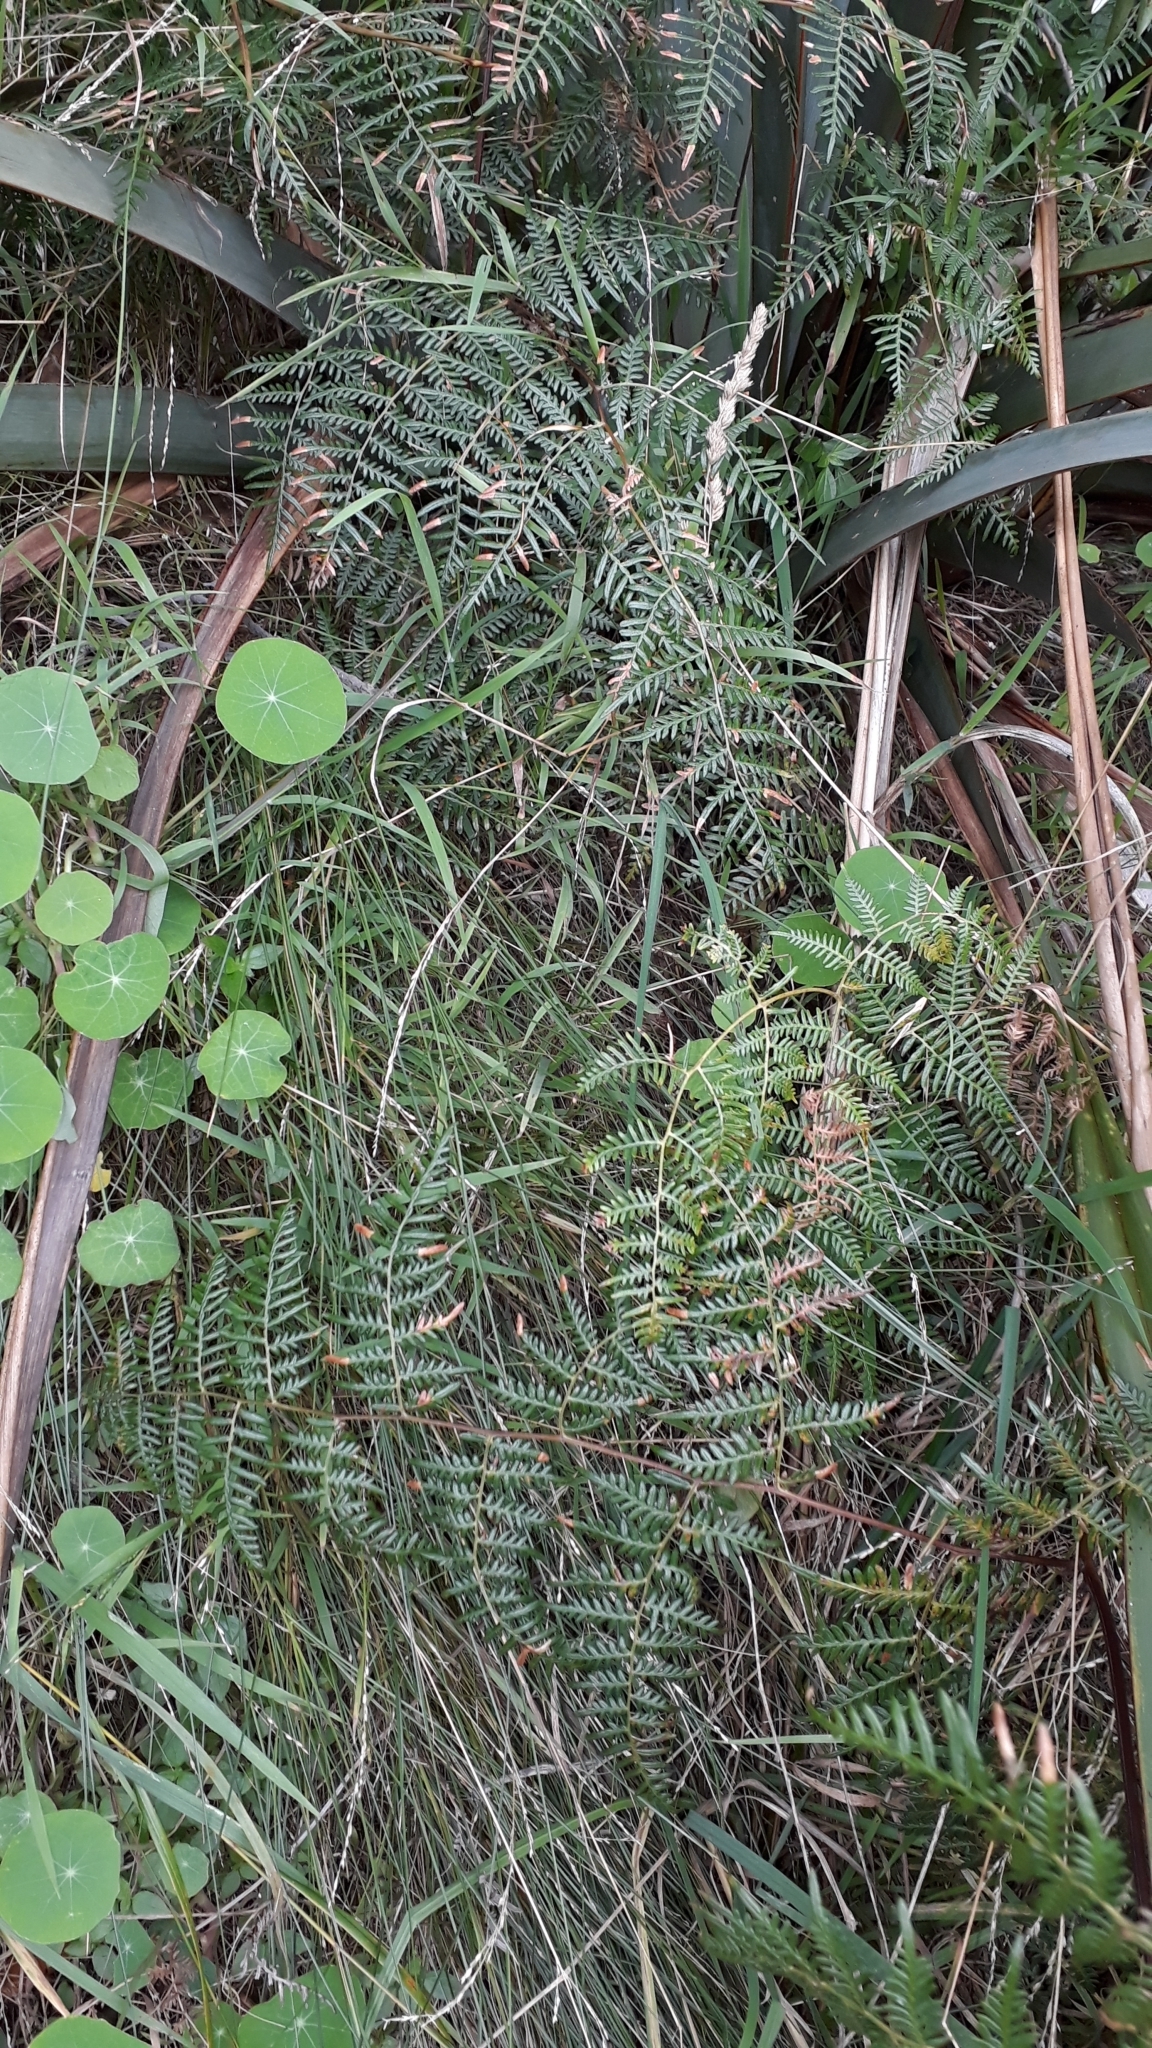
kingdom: Plantae
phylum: Tracheophyta
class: Polypodiopsida
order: Polypodiales
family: Dennstaedtiaceae
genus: Pteridium
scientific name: Pteridium esculentum
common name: Bracken fern
